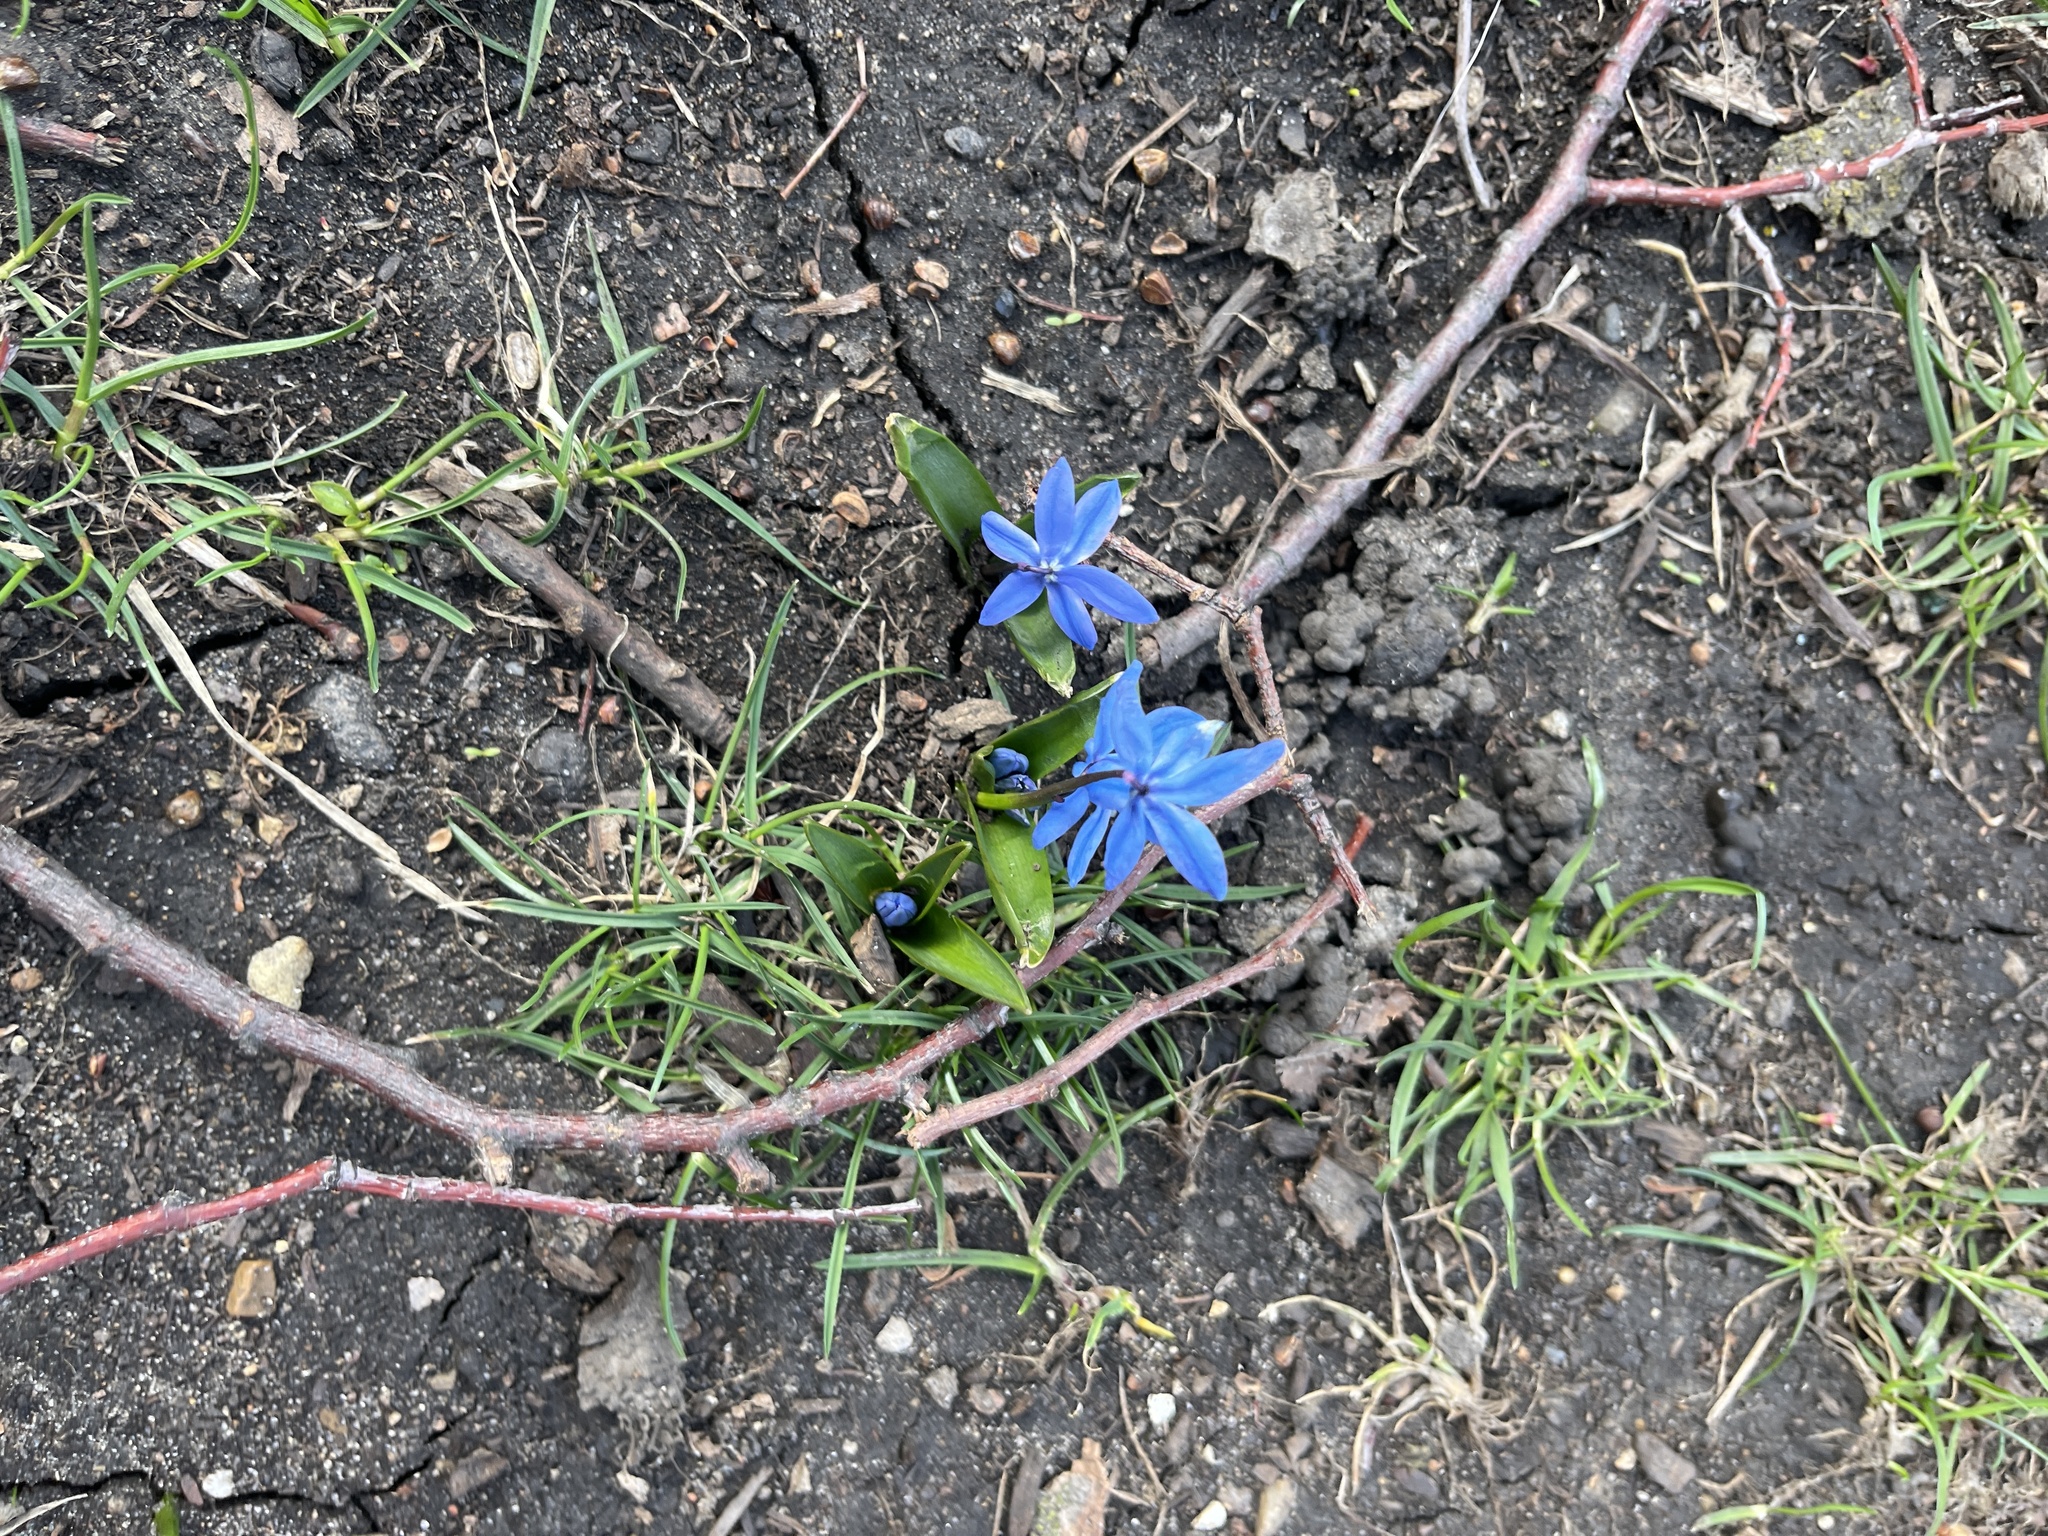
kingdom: Plantae
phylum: Tracheophyta
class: Liliopsida
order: Asparagales
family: Asparagaceae
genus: Scilla
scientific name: Scilla siberica
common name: Siberian squill
